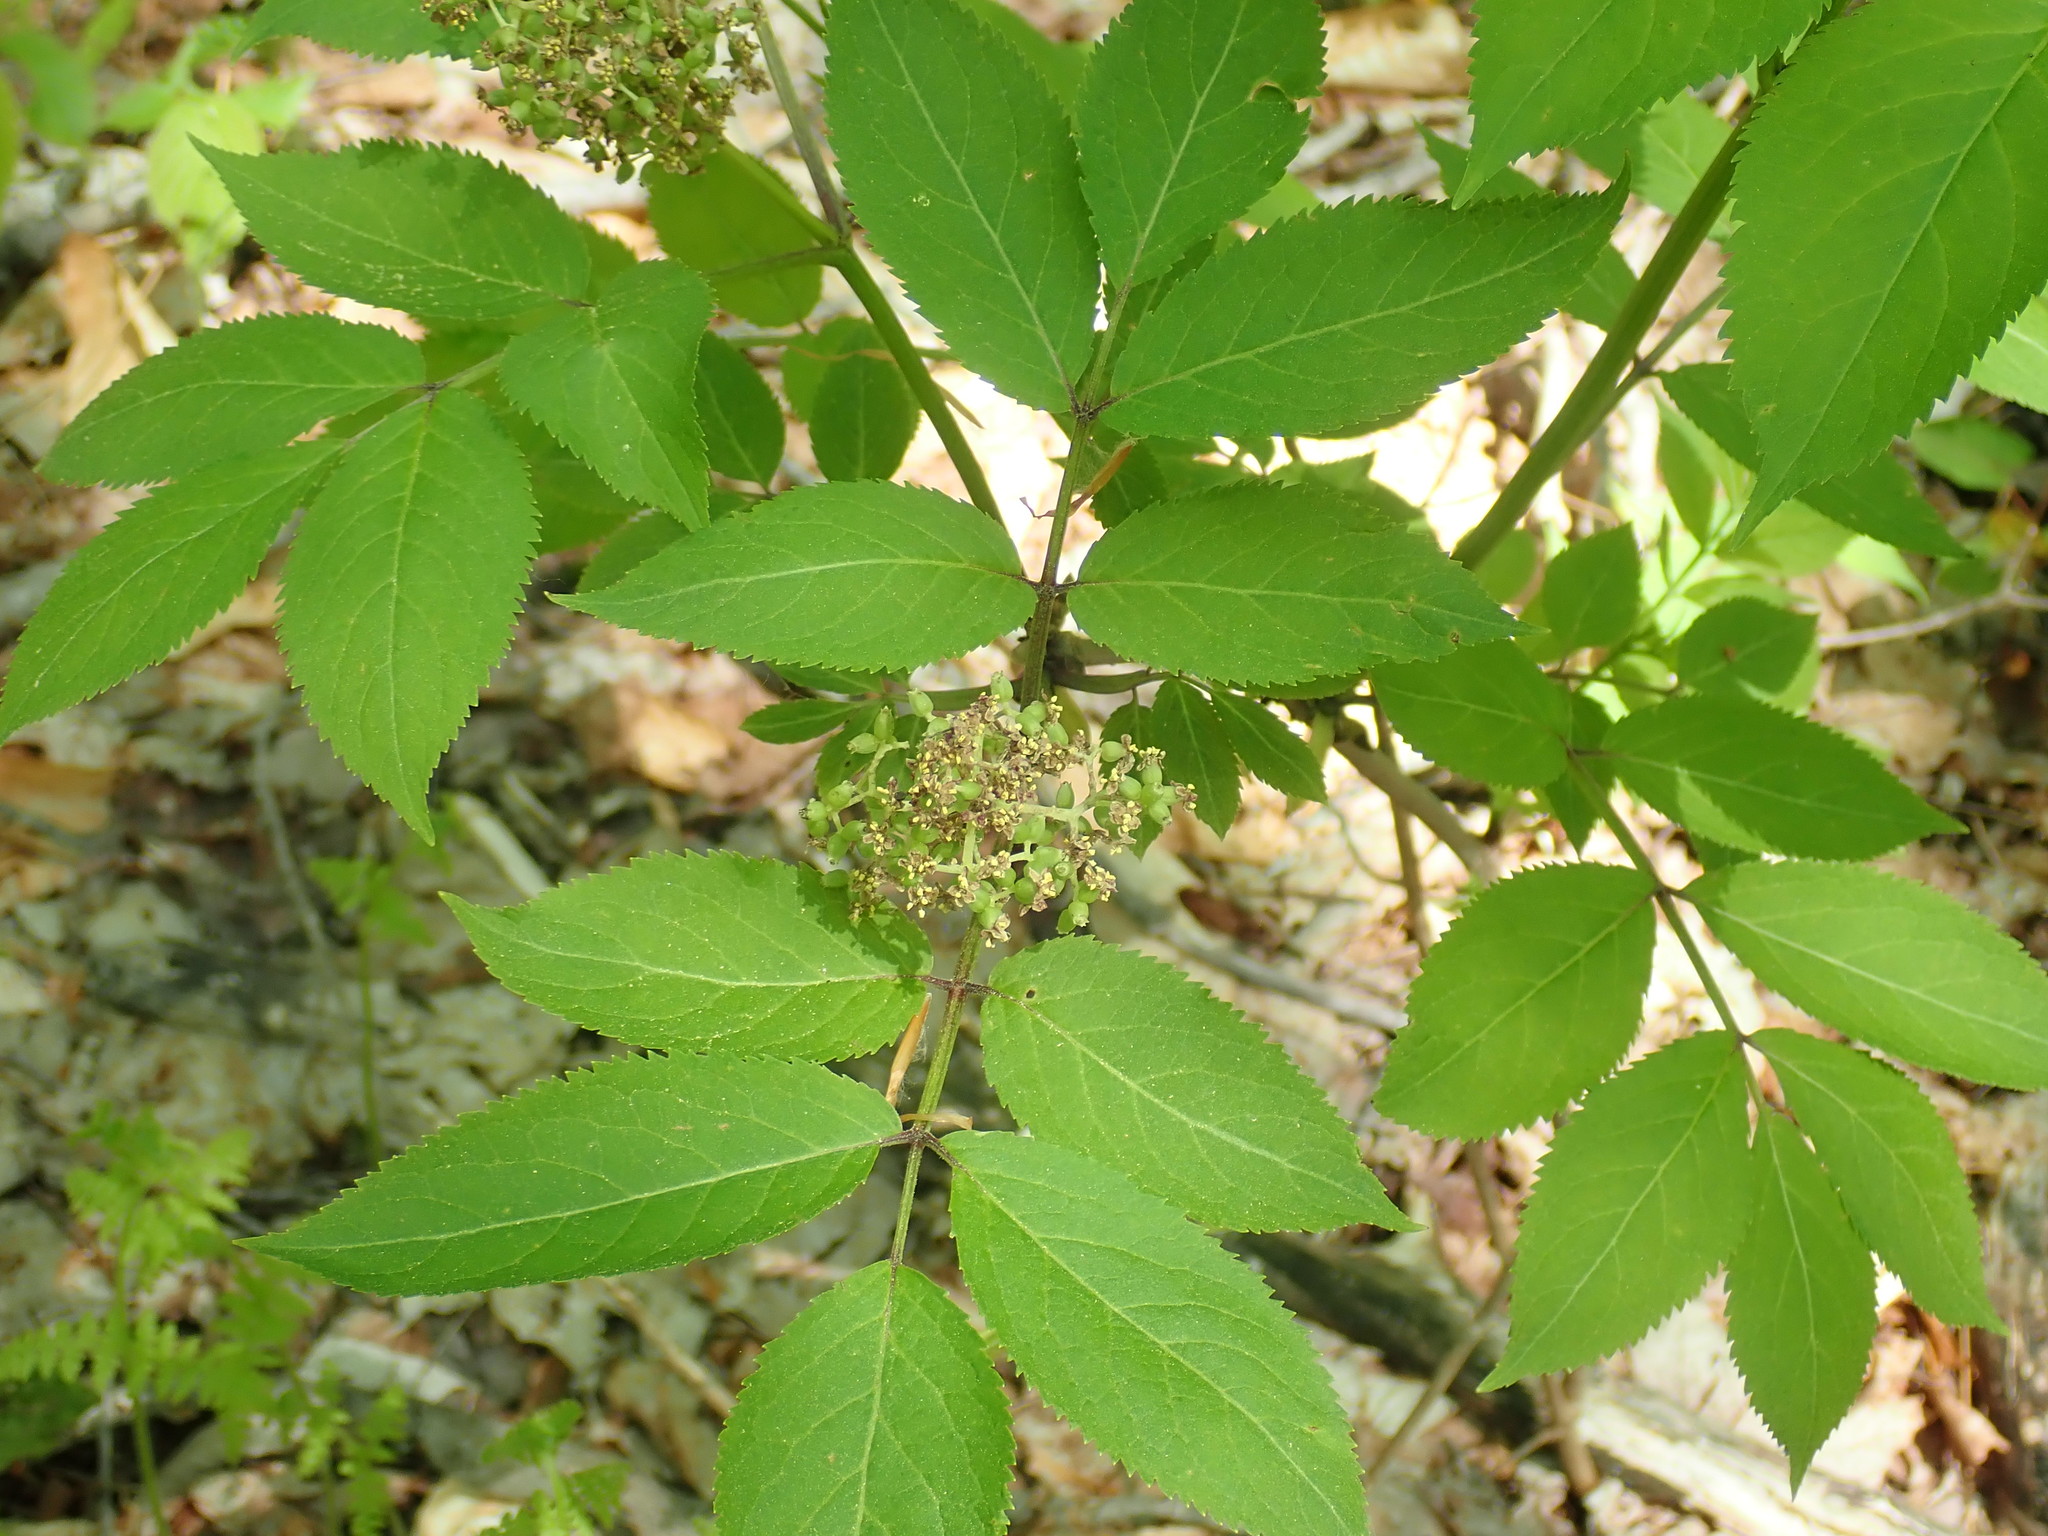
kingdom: Plantae
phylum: Tracheophyta
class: Magnoliopsida
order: Dipsacales
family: Viburnaceae
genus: Sambucus
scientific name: Sambucus racemosa
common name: Red-berried elder
